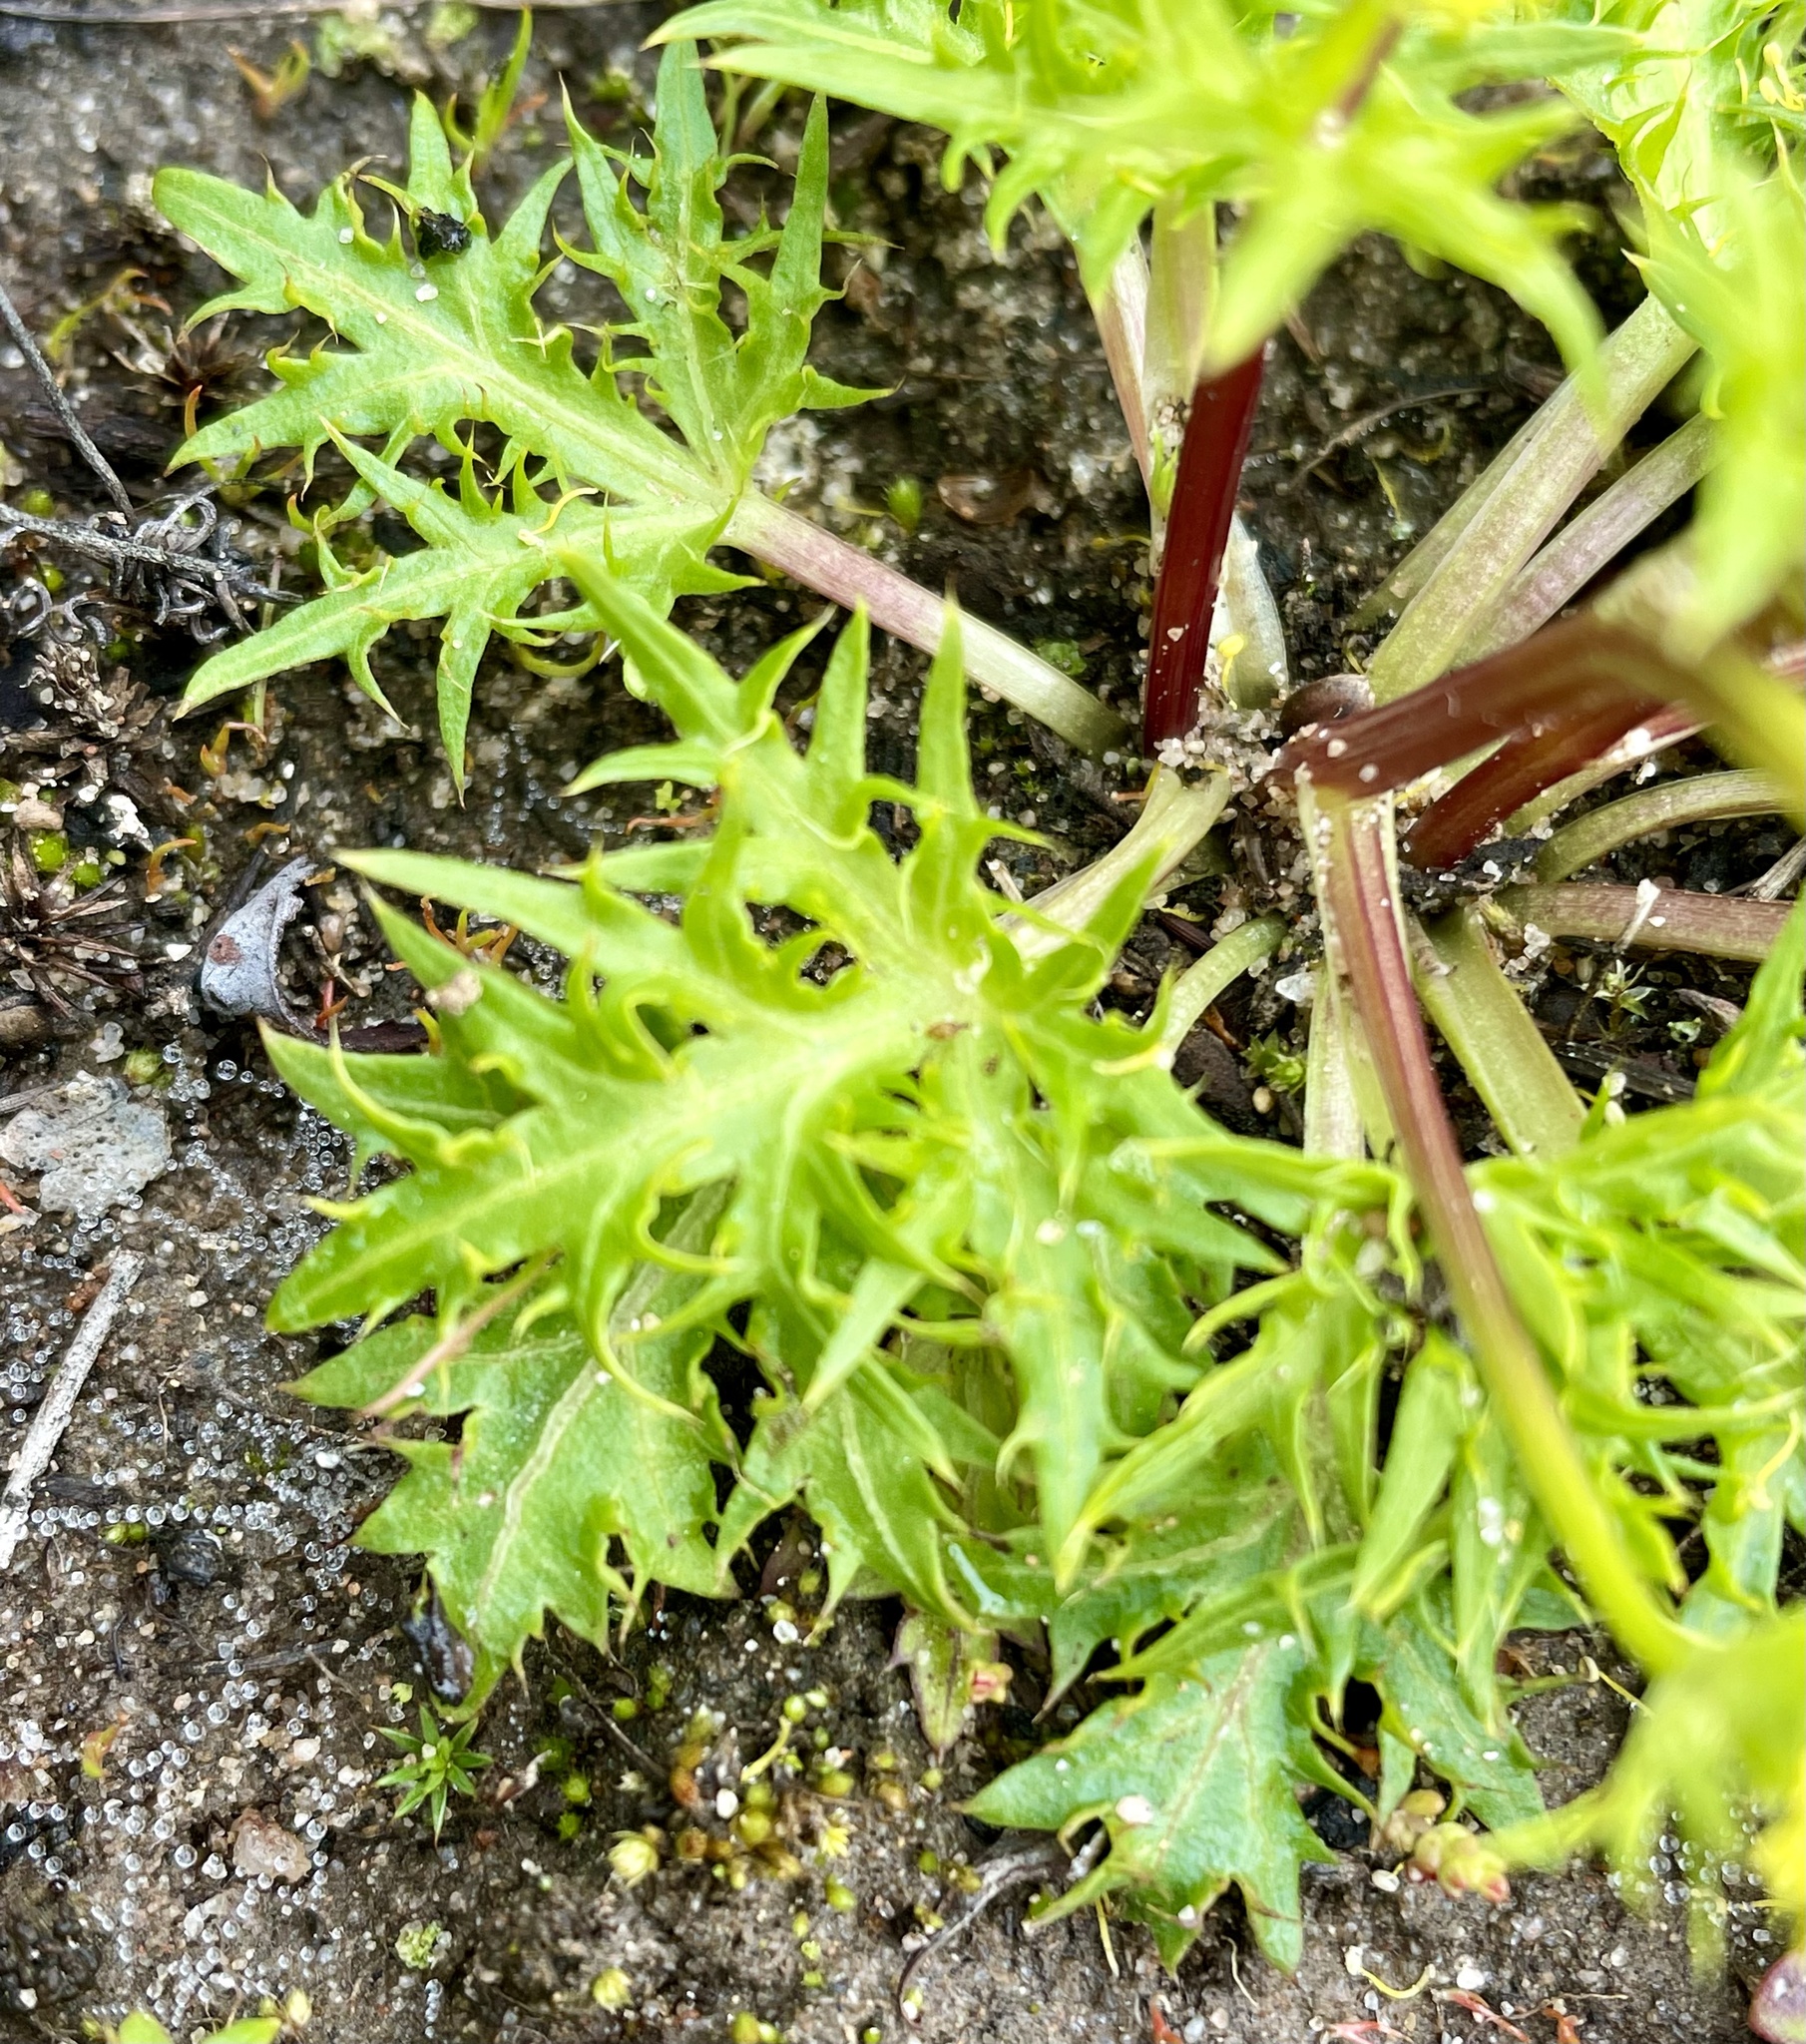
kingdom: Plantae
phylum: Tracheophyta
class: Magnoliopsida
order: Apiales
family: Apiaceae
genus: Sanicula
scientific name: Sanicula laciniata
